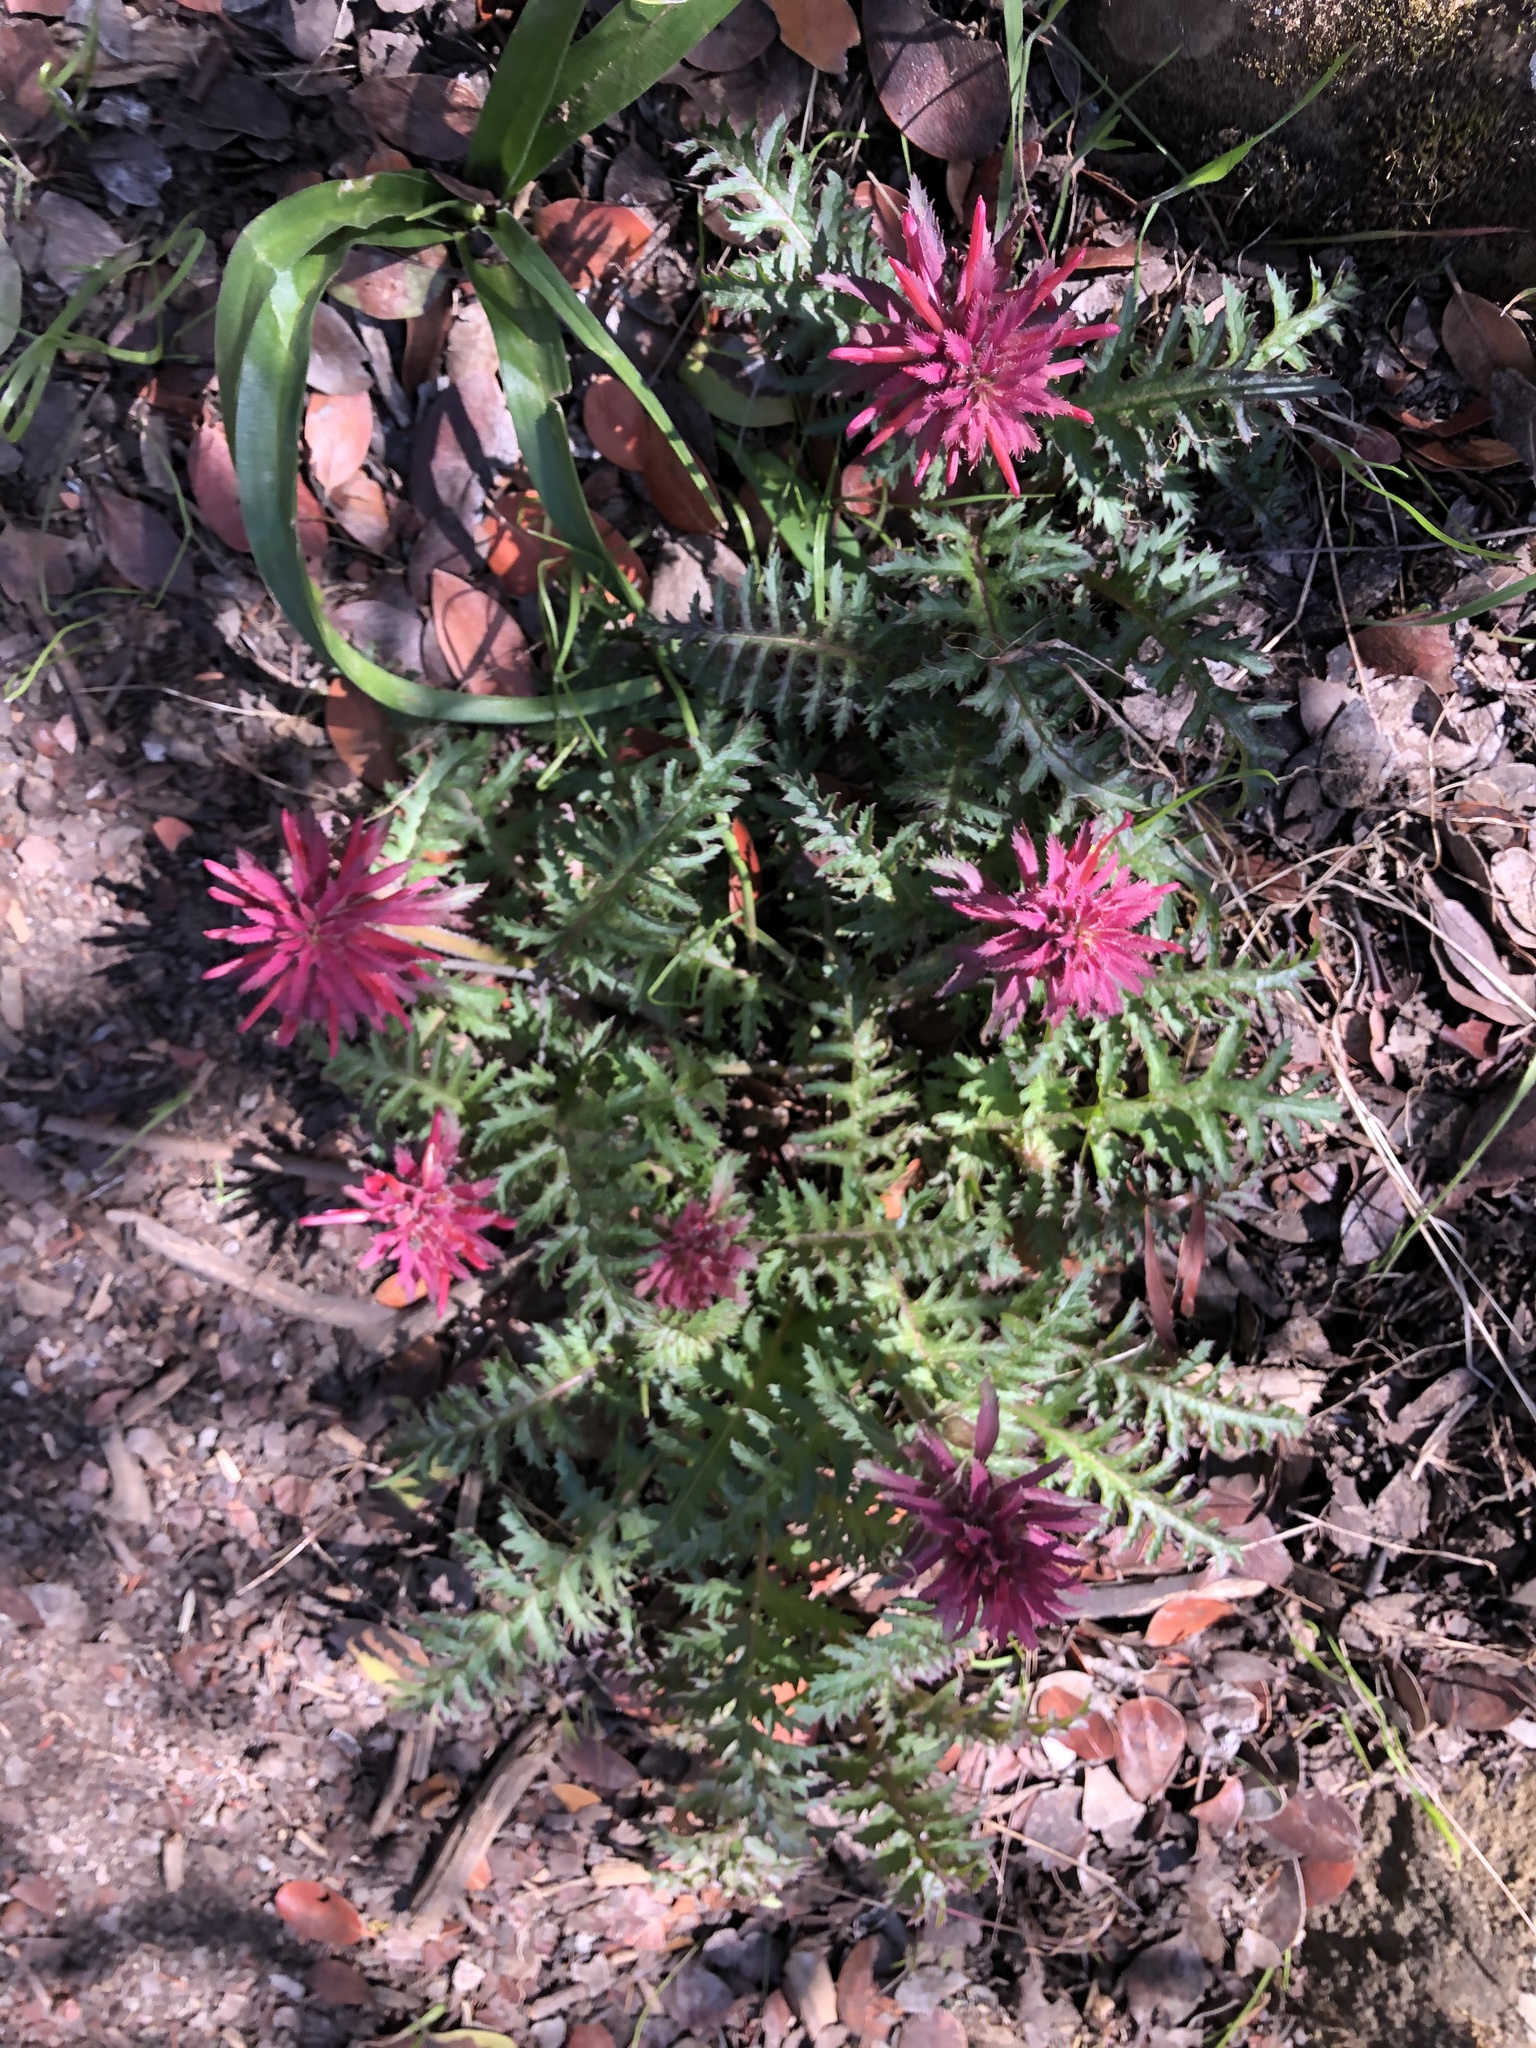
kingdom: Plantae
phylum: Tracheophyta
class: Magnoliopsida
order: Lamiales
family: Orobanchaceae
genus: Pedicularis
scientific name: Pedicularis densiflora
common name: Indian warrior
